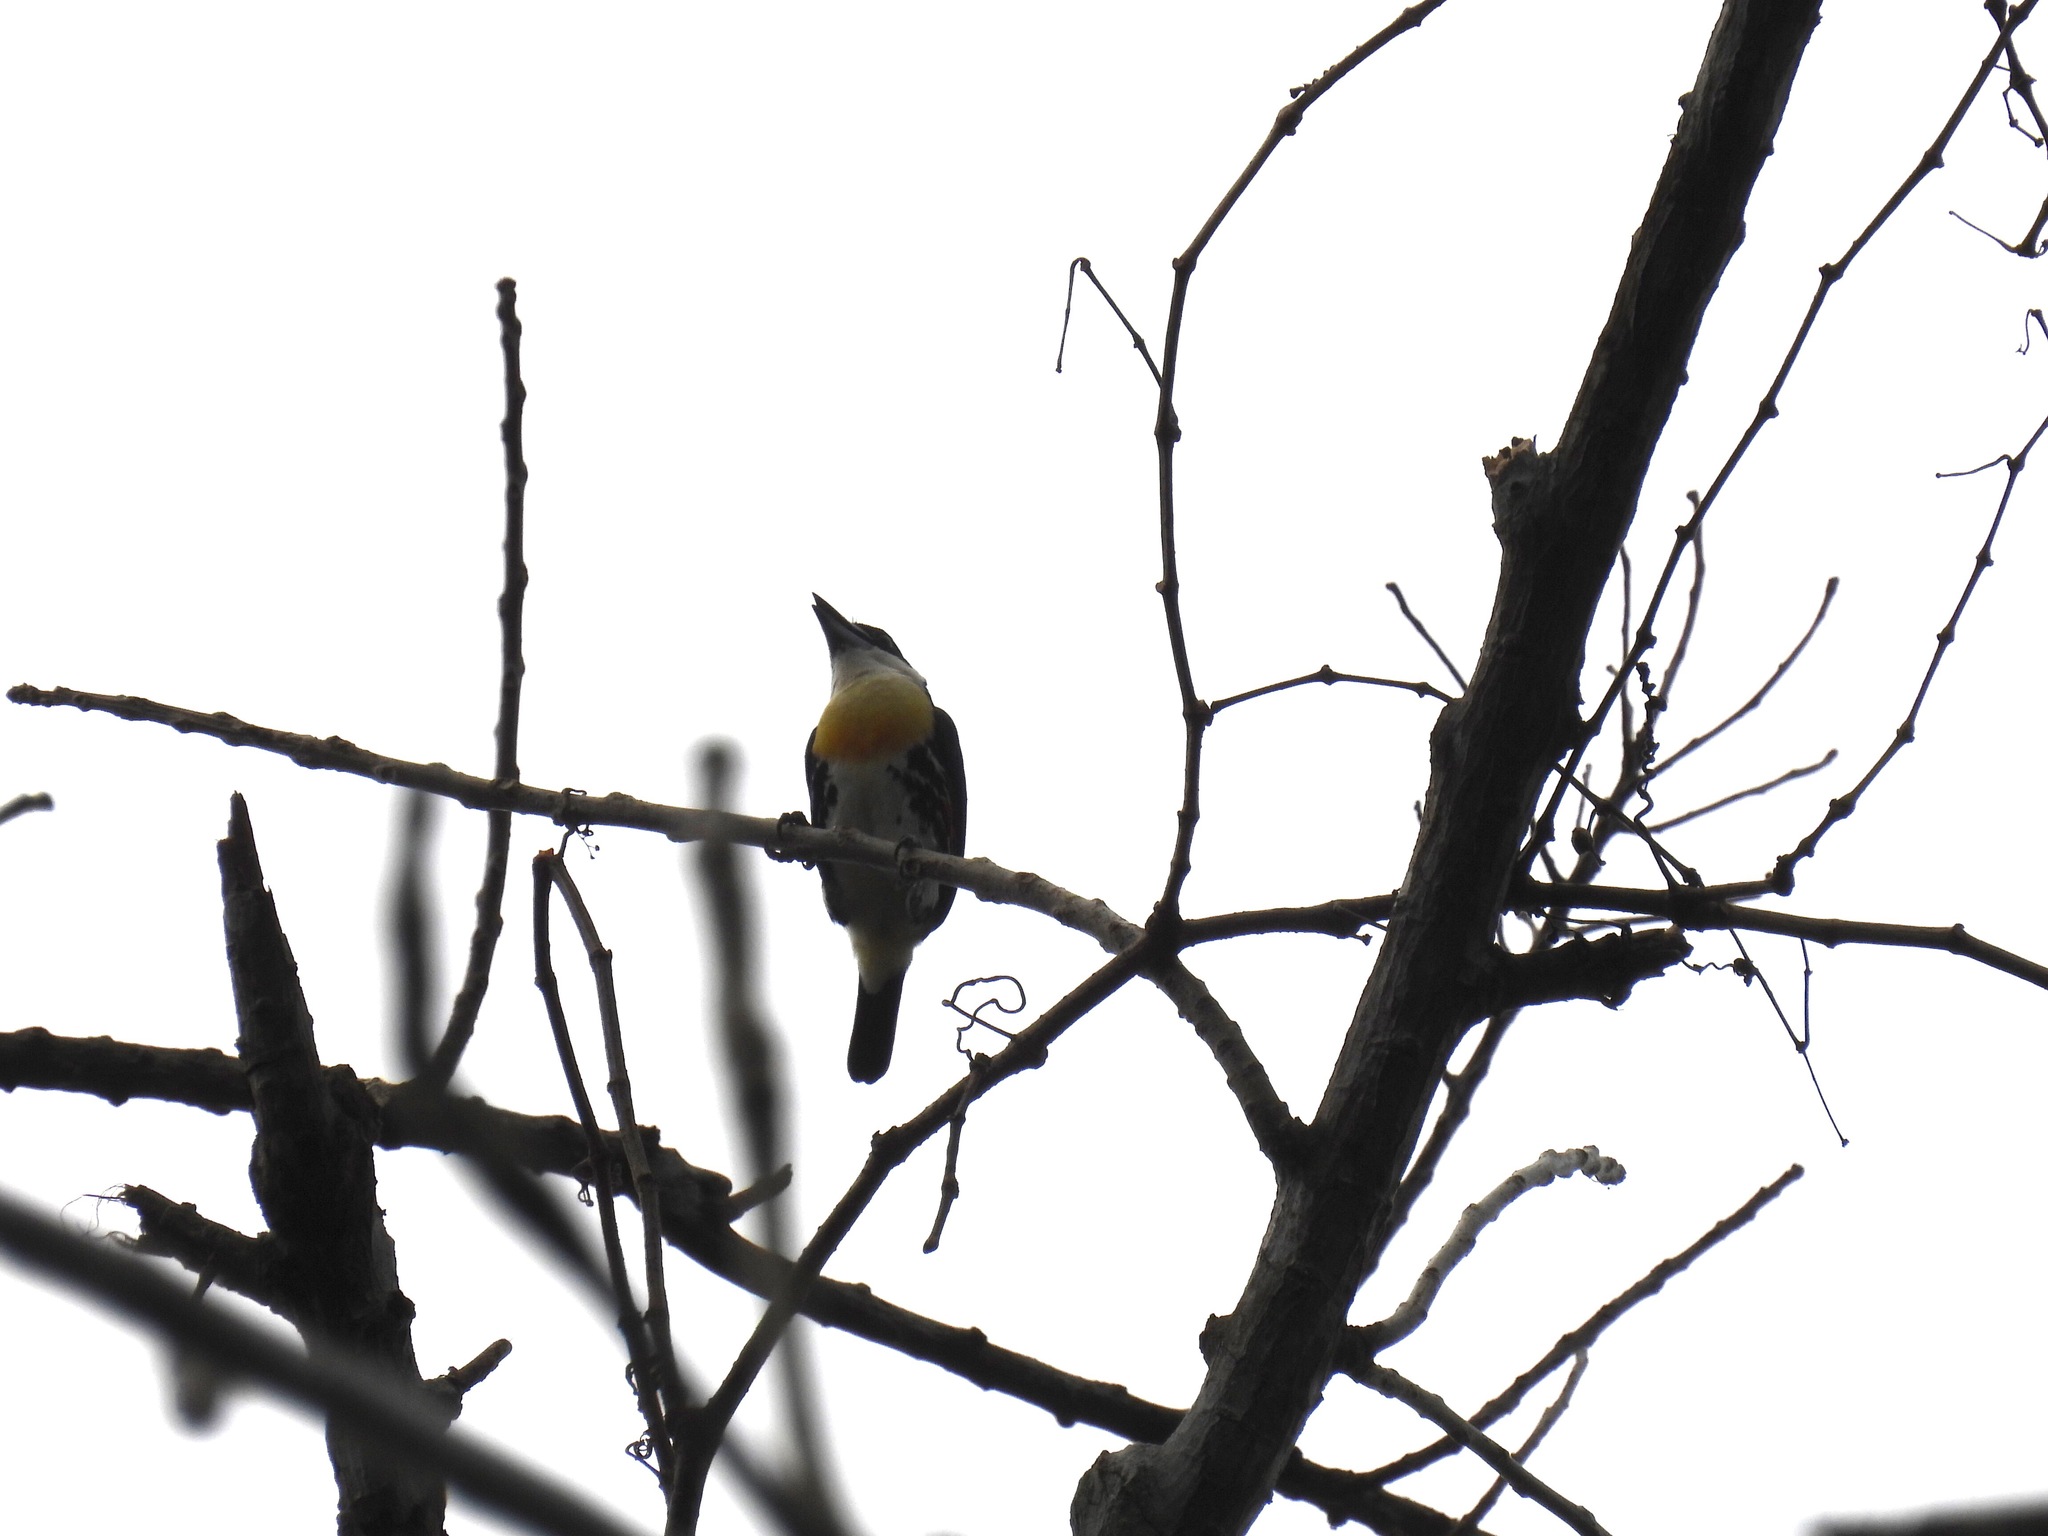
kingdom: Animalia
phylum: Chordata
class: Aves
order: Piciformes
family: Capitonidae
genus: Capito
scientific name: Capito maculicoronatus
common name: Spot-crowned barbet
